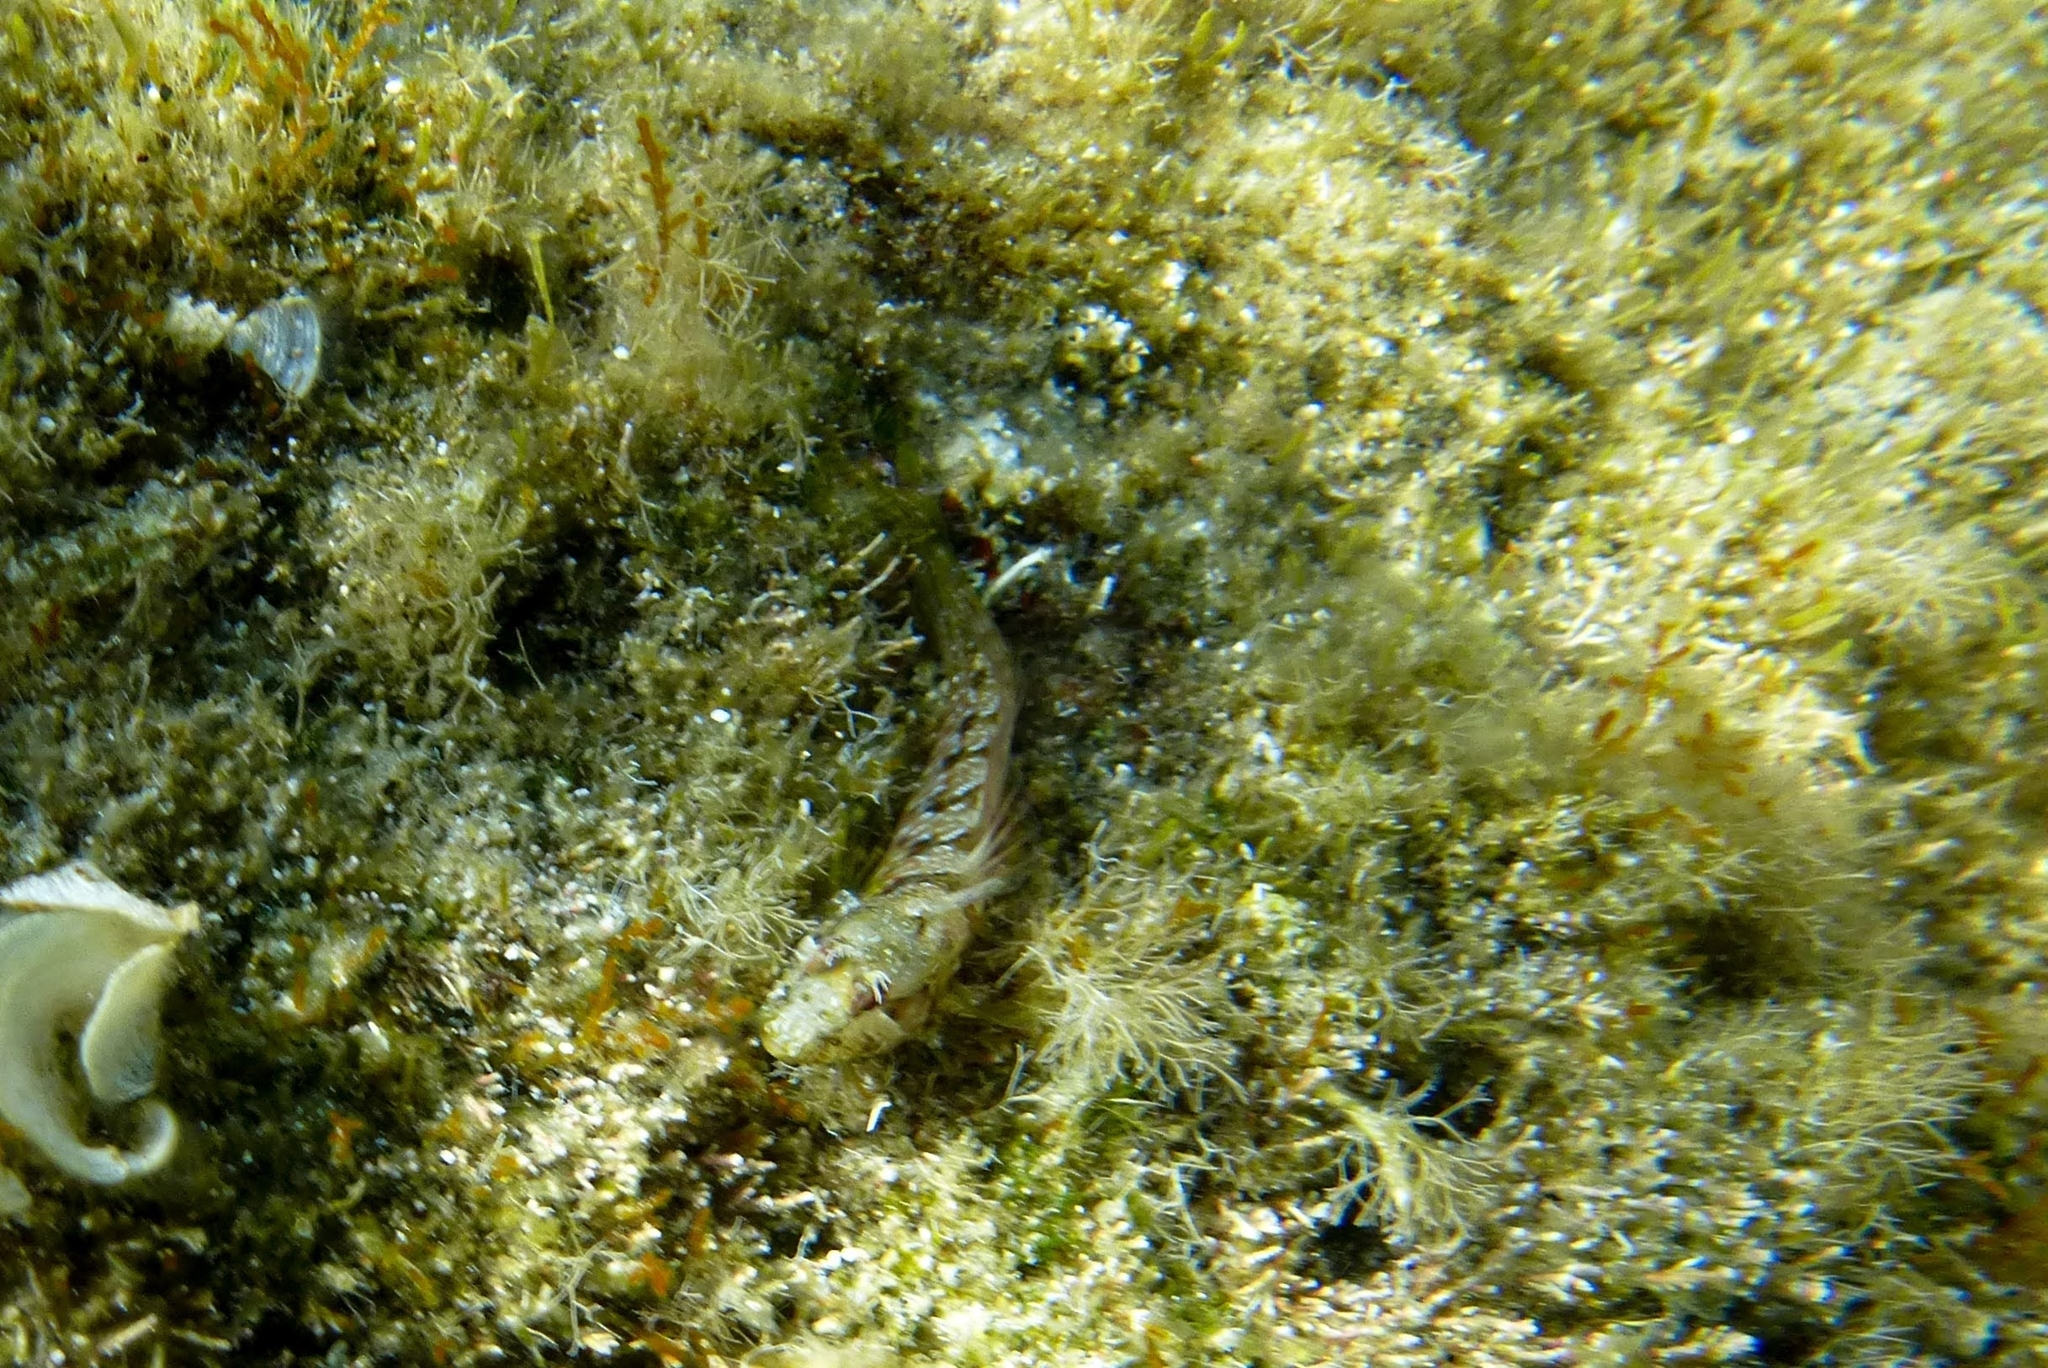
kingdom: Animalia
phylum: Chordata
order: Perciformes
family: Blenniidae
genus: Parablennius
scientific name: Parablennius incognitus
